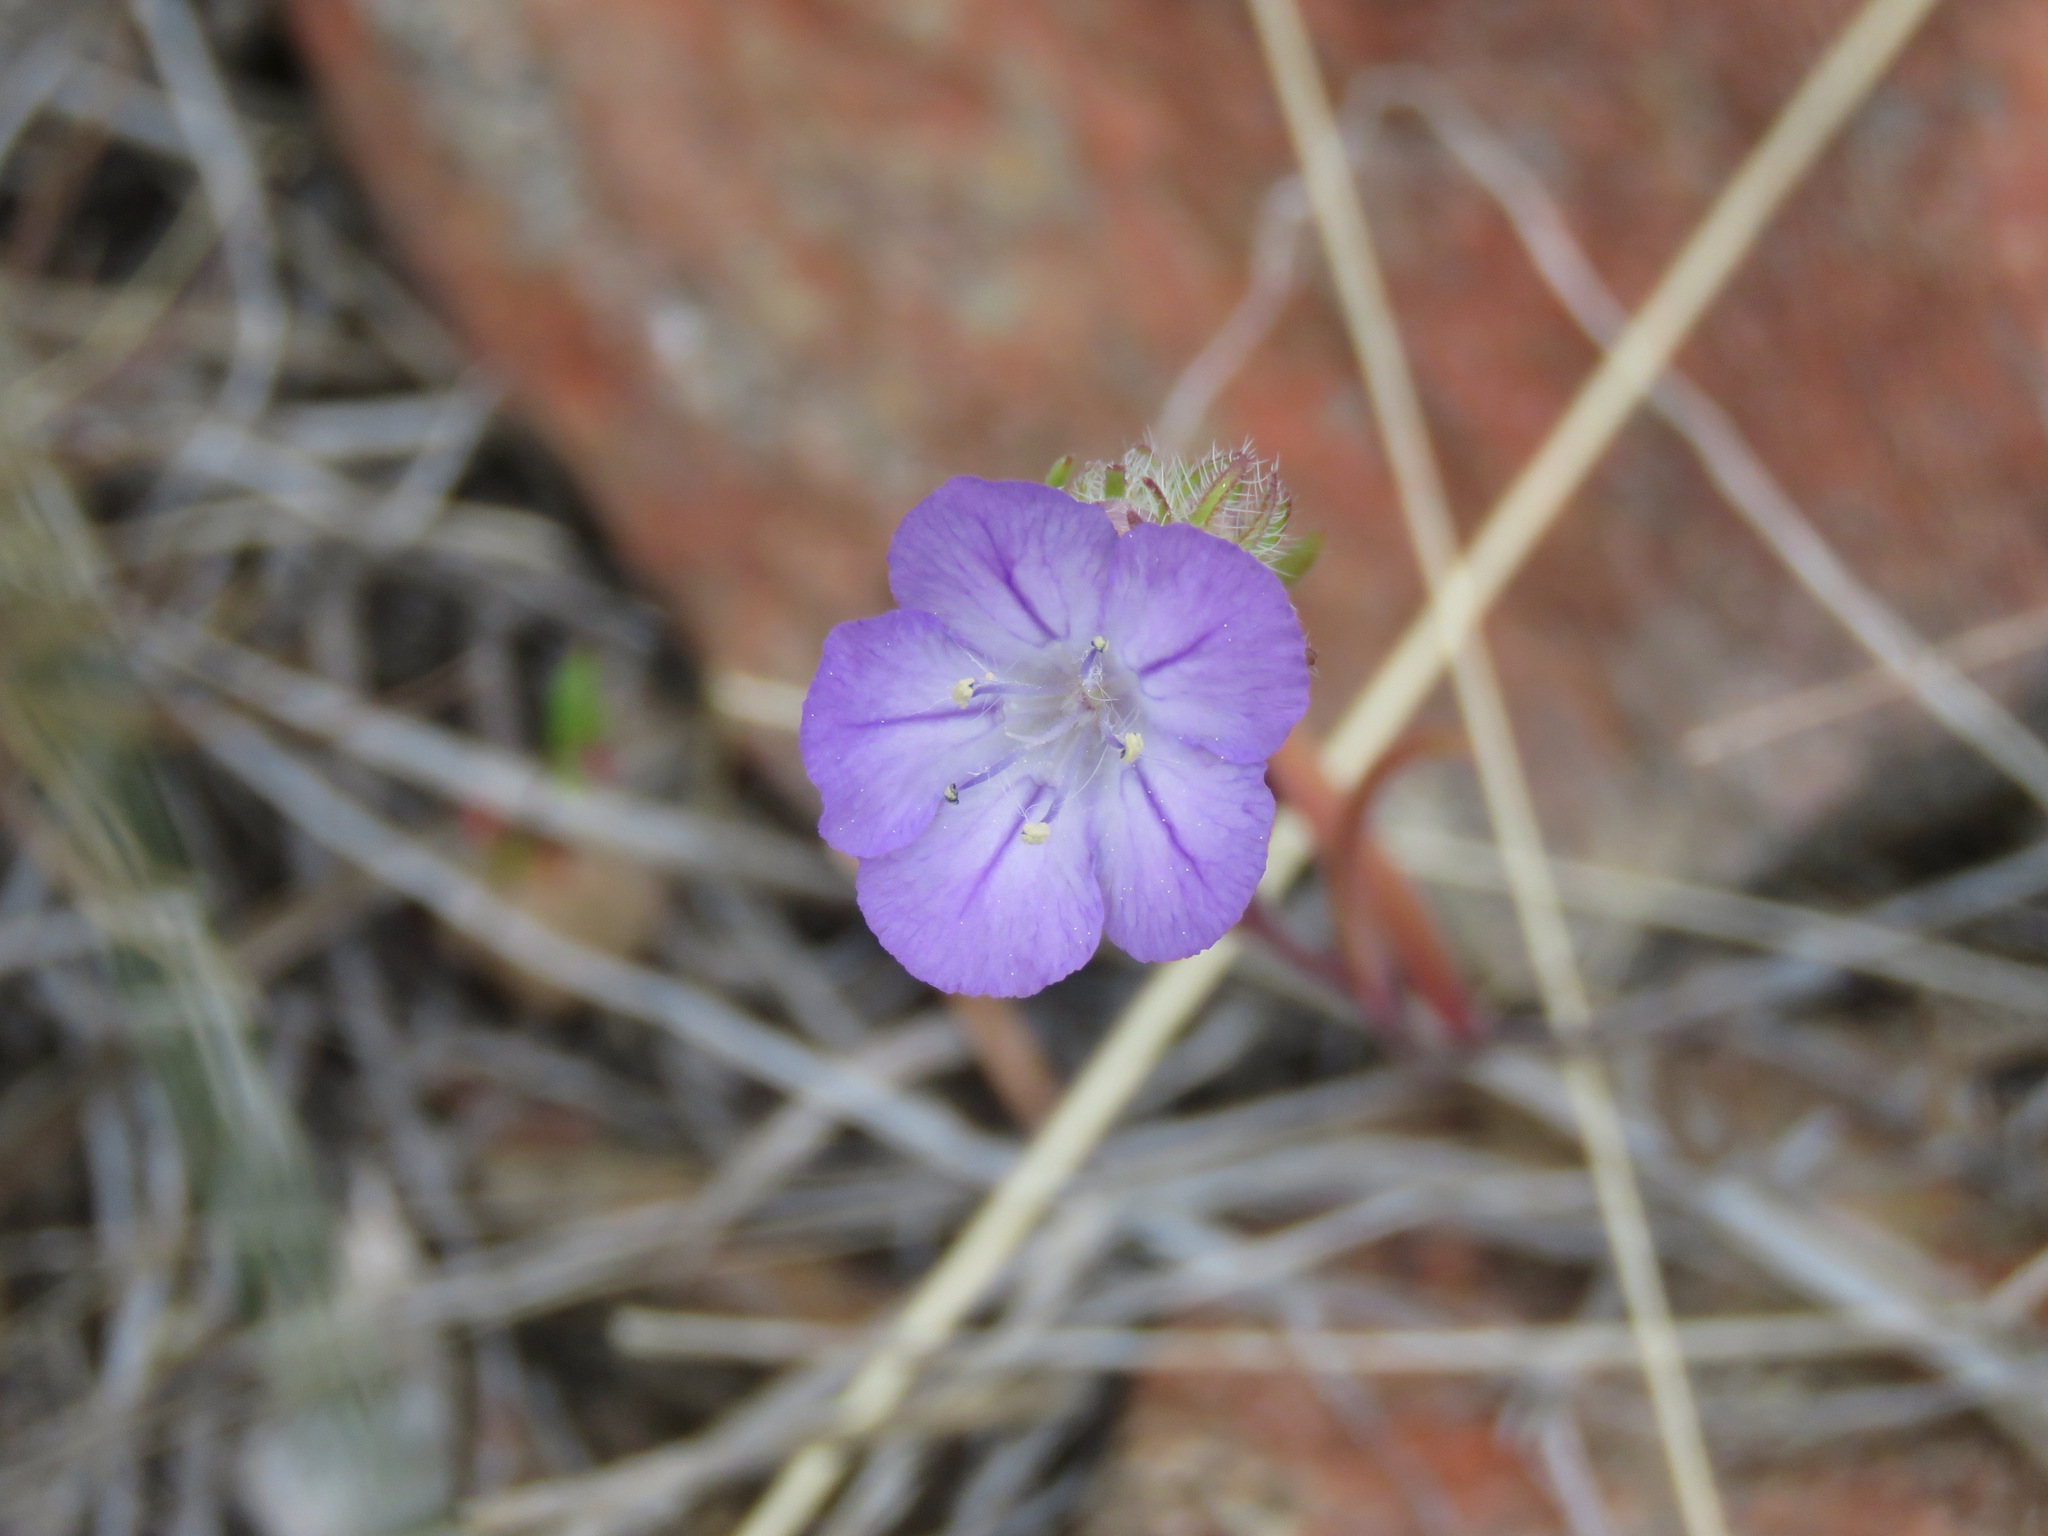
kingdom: Plantae
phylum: Tracheophyta
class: Magnoliopsida
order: Boraginales
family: Hydrophyllaceae
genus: Phacelia
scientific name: Phacelia linearis
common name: Linear-leaved phacelia
